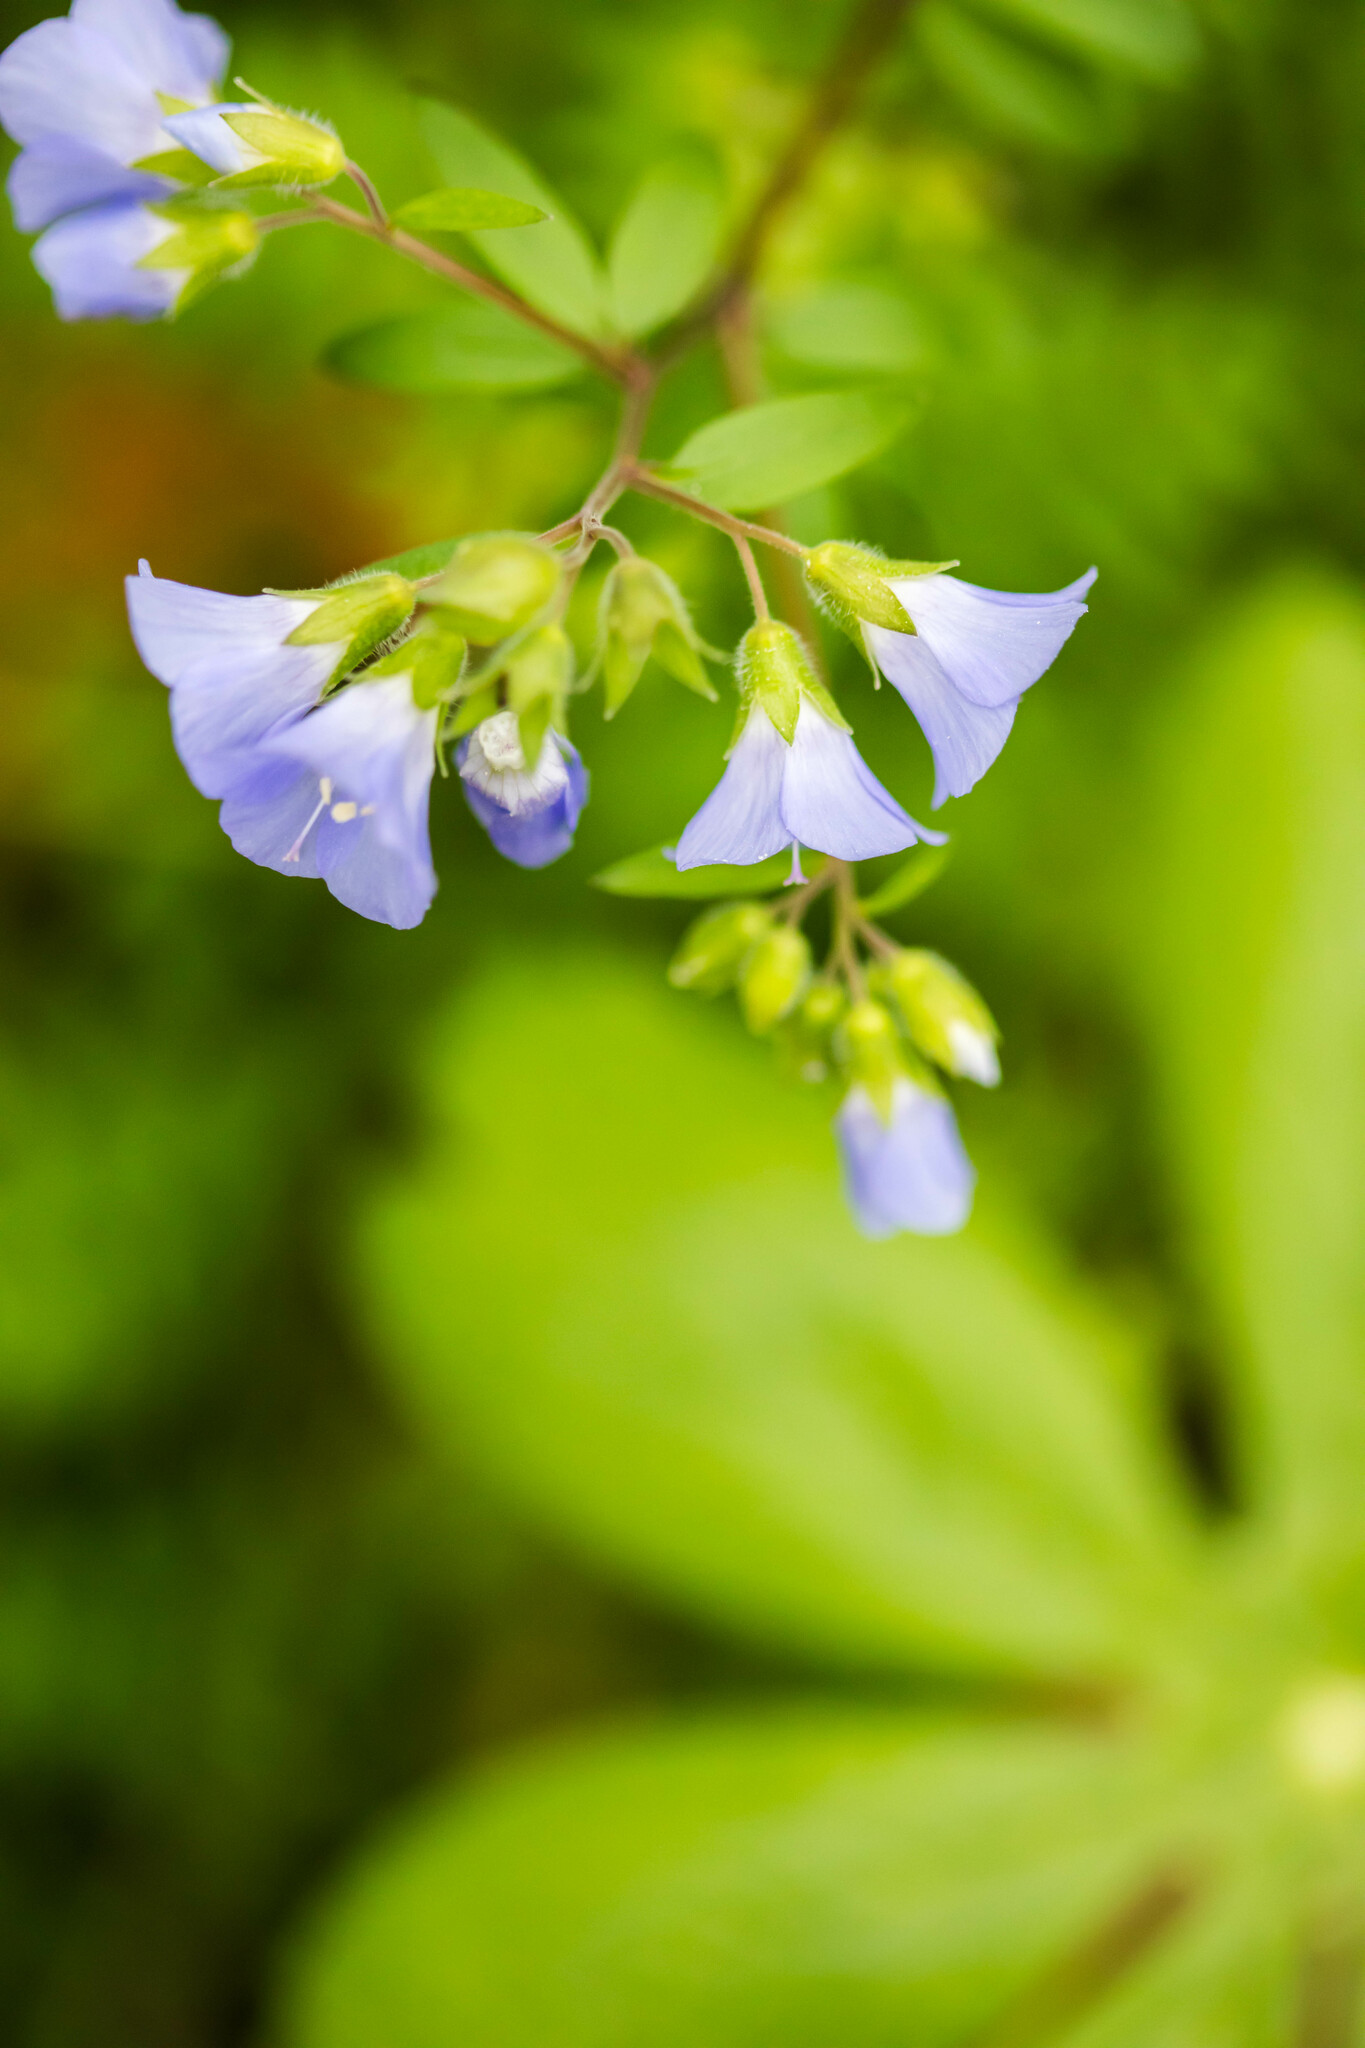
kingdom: Plantae
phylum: Tracheophyta
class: Magnoliopsida
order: Ericales
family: Polemoniaceae
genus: Polemonium
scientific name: Polemonium reptans
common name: Creeping jacob's-ladder
